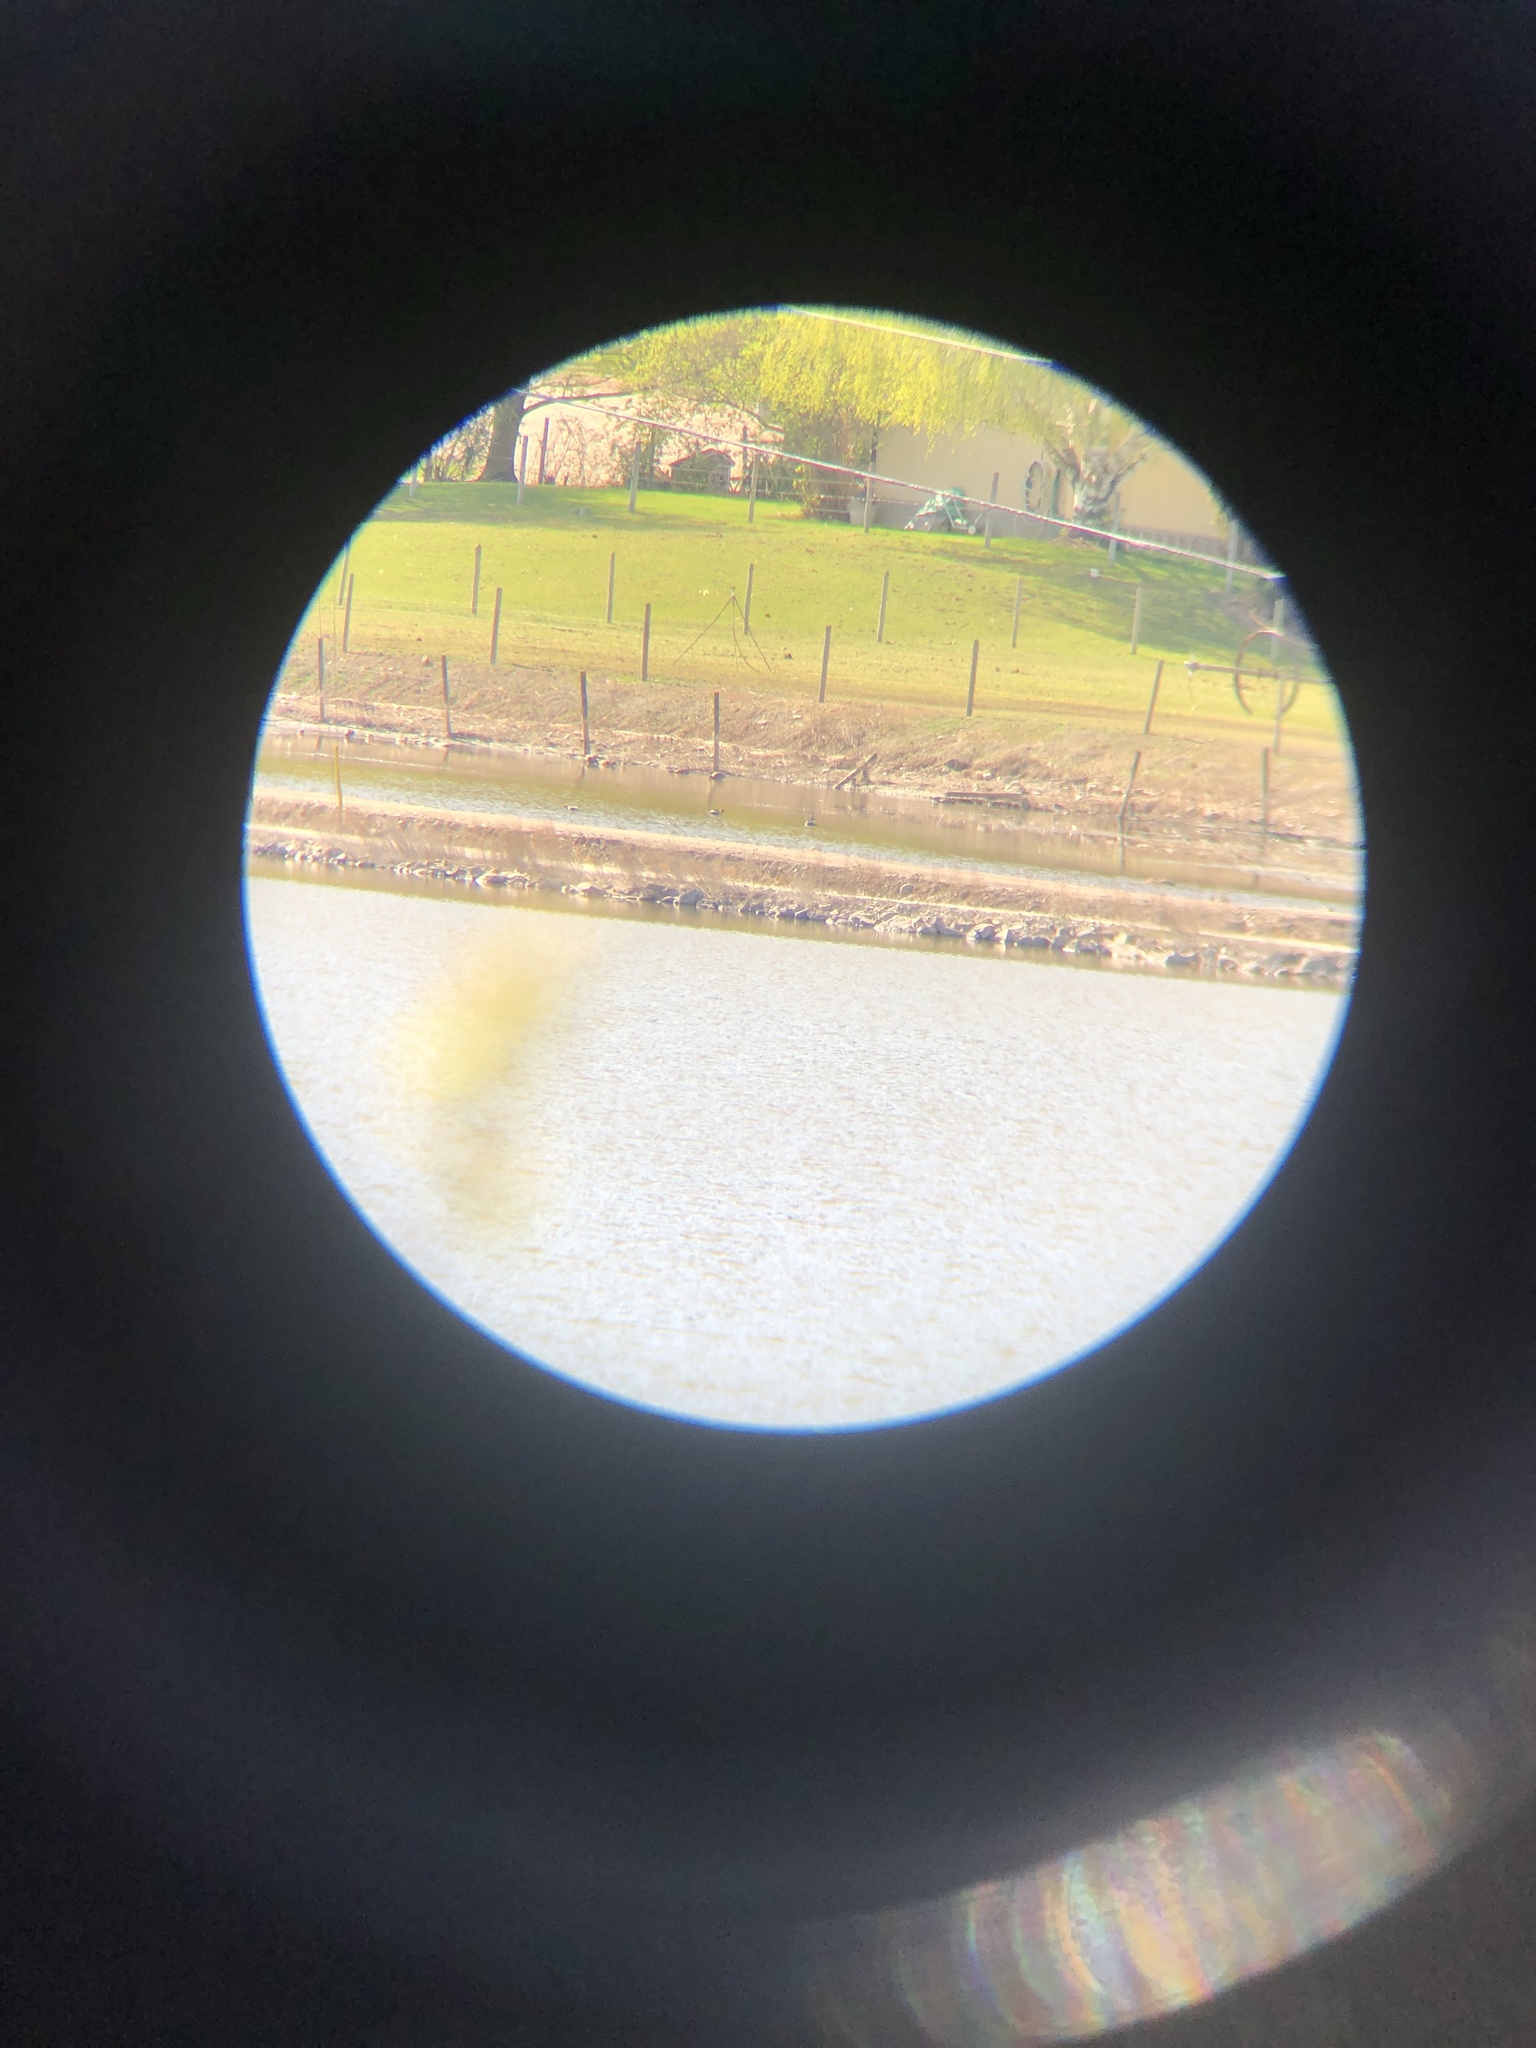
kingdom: Animalia
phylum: Chordata
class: Aves
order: Charadriiformes
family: Recurvirostridae
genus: Recurvirostra
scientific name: Recurvirostra americana
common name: American avocet
